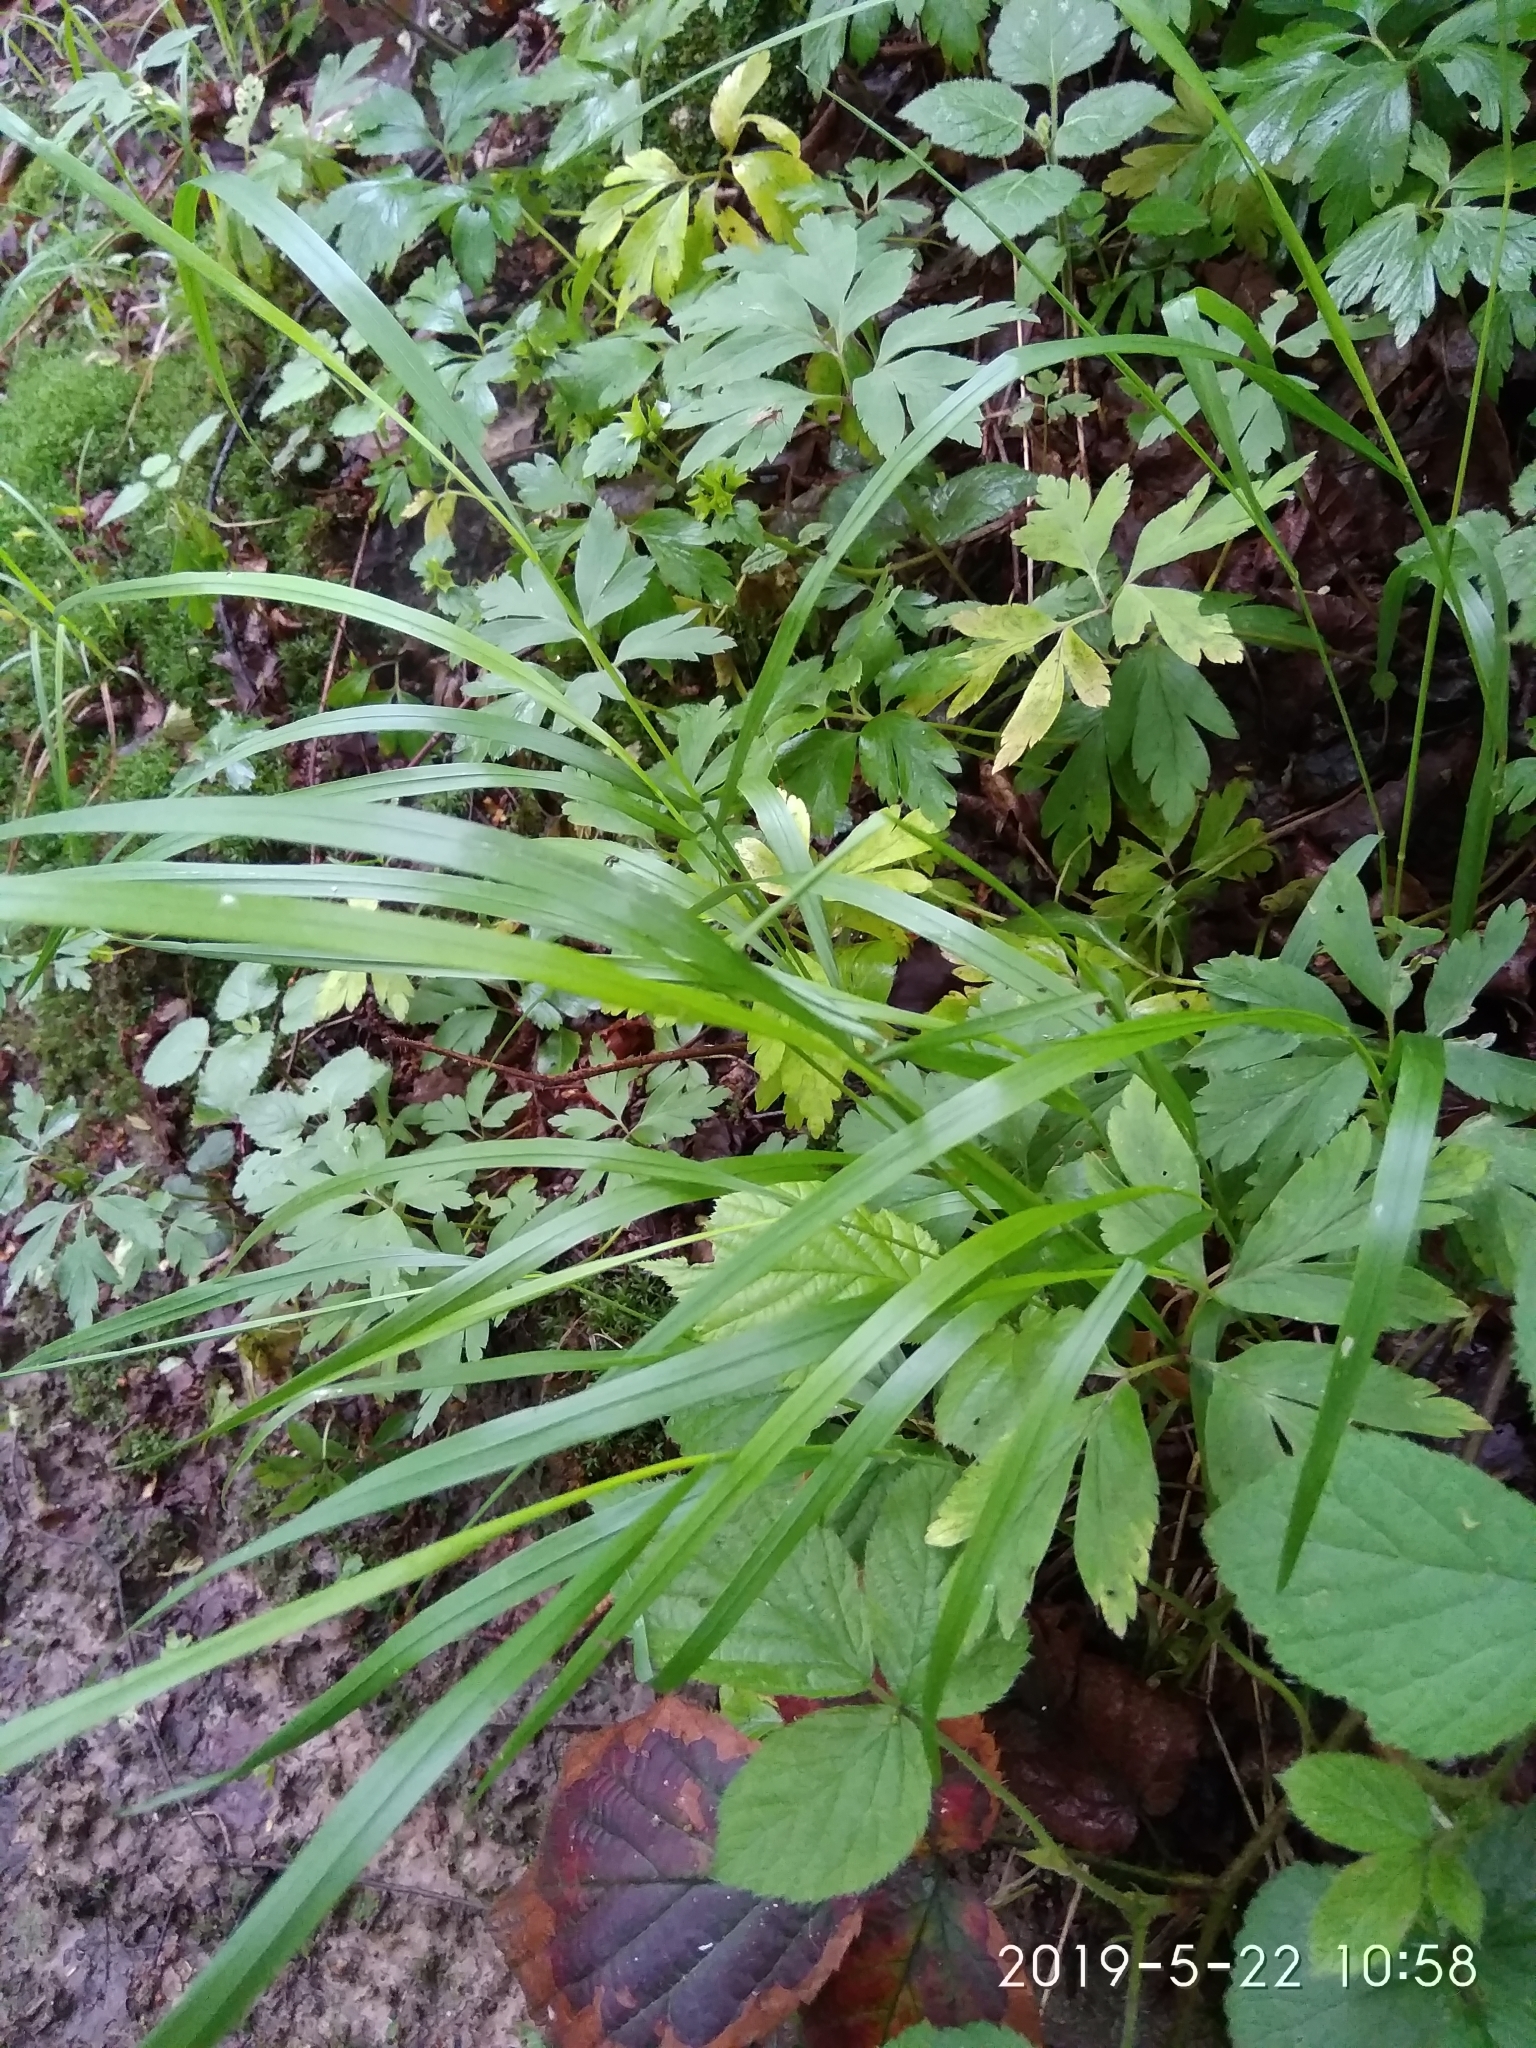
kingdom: Plantae
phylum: Tracheophyta
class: Liliopsida
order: Poales
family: Poaceae
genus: Melica
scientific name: Melica nutans
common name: Mountain melick
